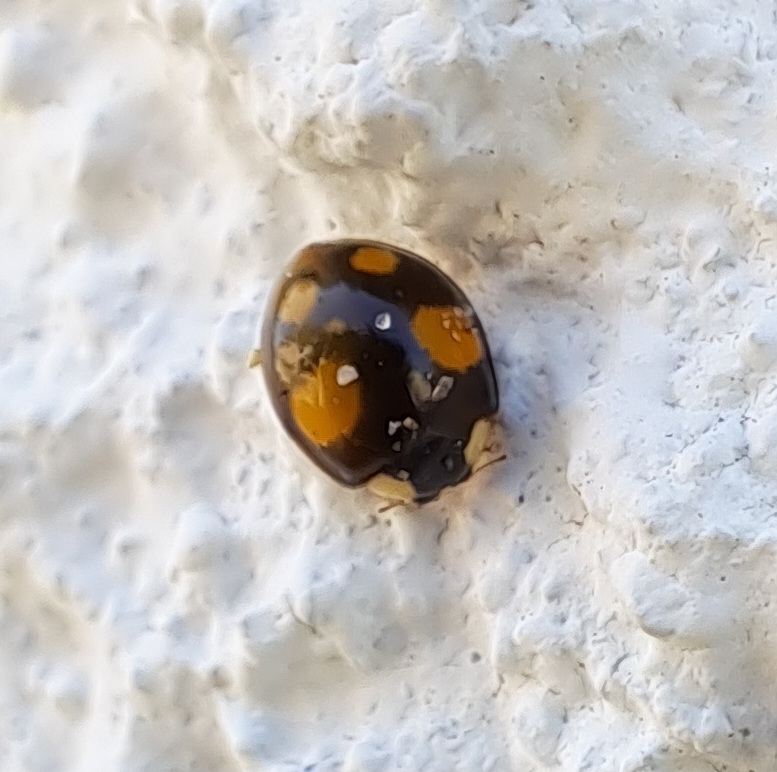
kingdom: Animalia
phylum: Arthropoda
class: Insecta
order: Coleoptera
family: Coccinellidae
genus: Harmonia
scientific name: Harmonia axyridis
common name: Harlequin ladybird
